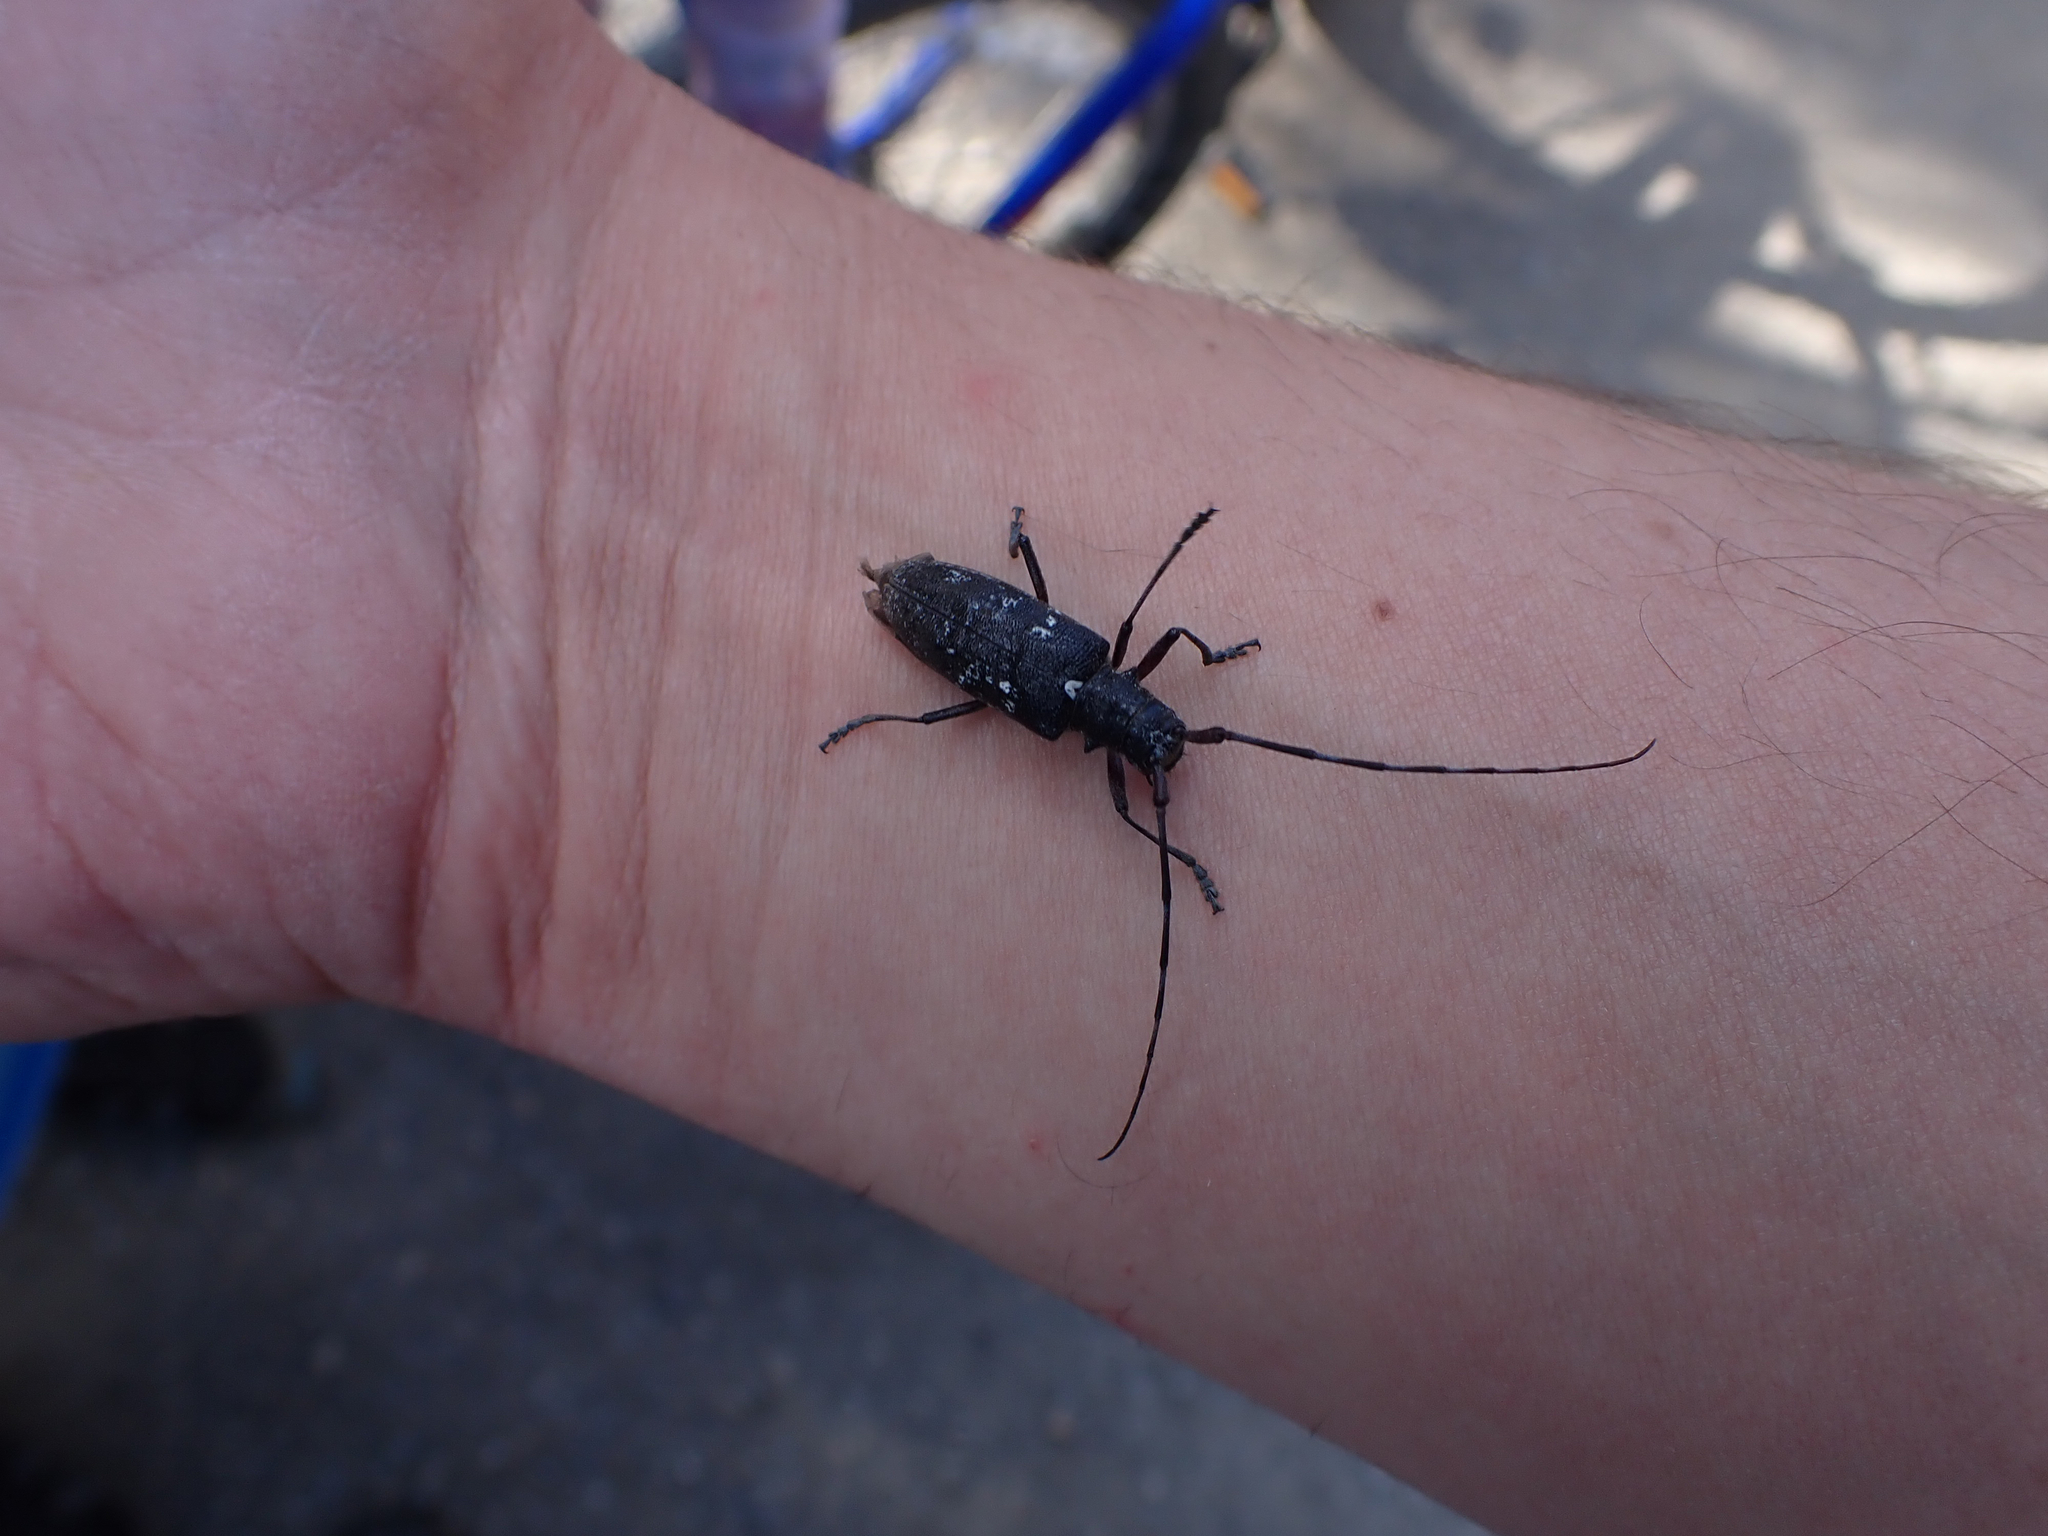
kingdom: Animalia
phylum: Arthropoda
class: Insecta
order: Coleoptera
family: Cerambycidae
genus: Monochamus
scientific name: Monochamus scutellatus
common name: White-spotted sawyer beetle
